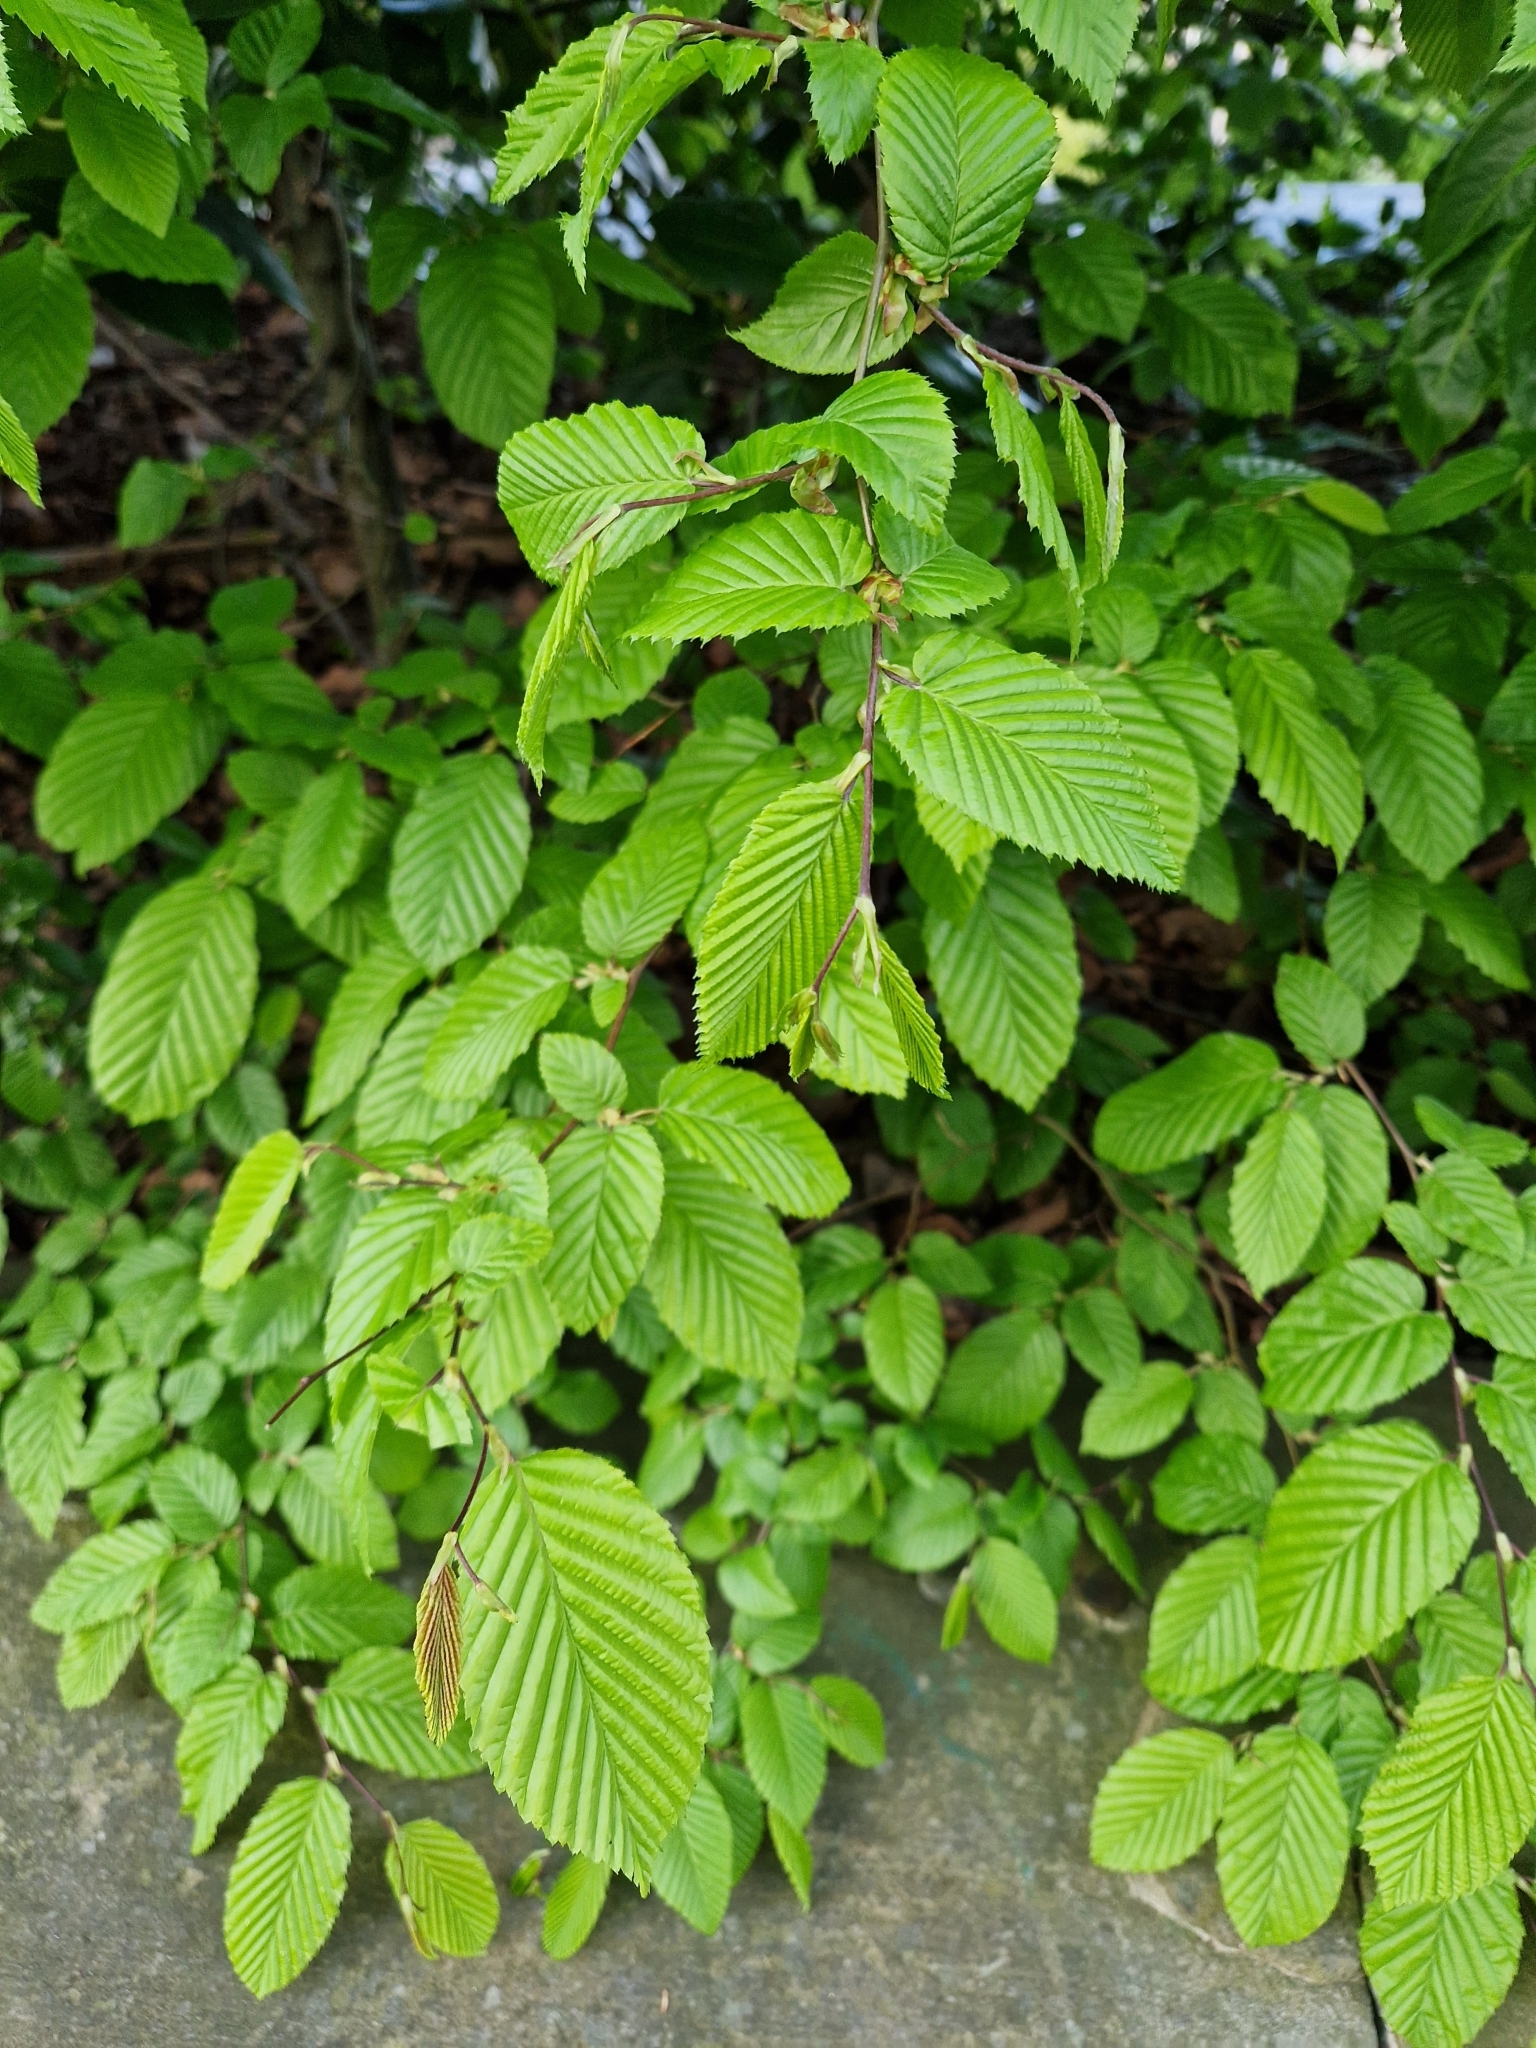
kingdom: Plantae
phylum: Tracheophyta
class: Magnoliopsida
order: Fagales
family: Betulaceae
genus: Carpinus
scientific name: Carpinus betulus
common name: Hornbeam
